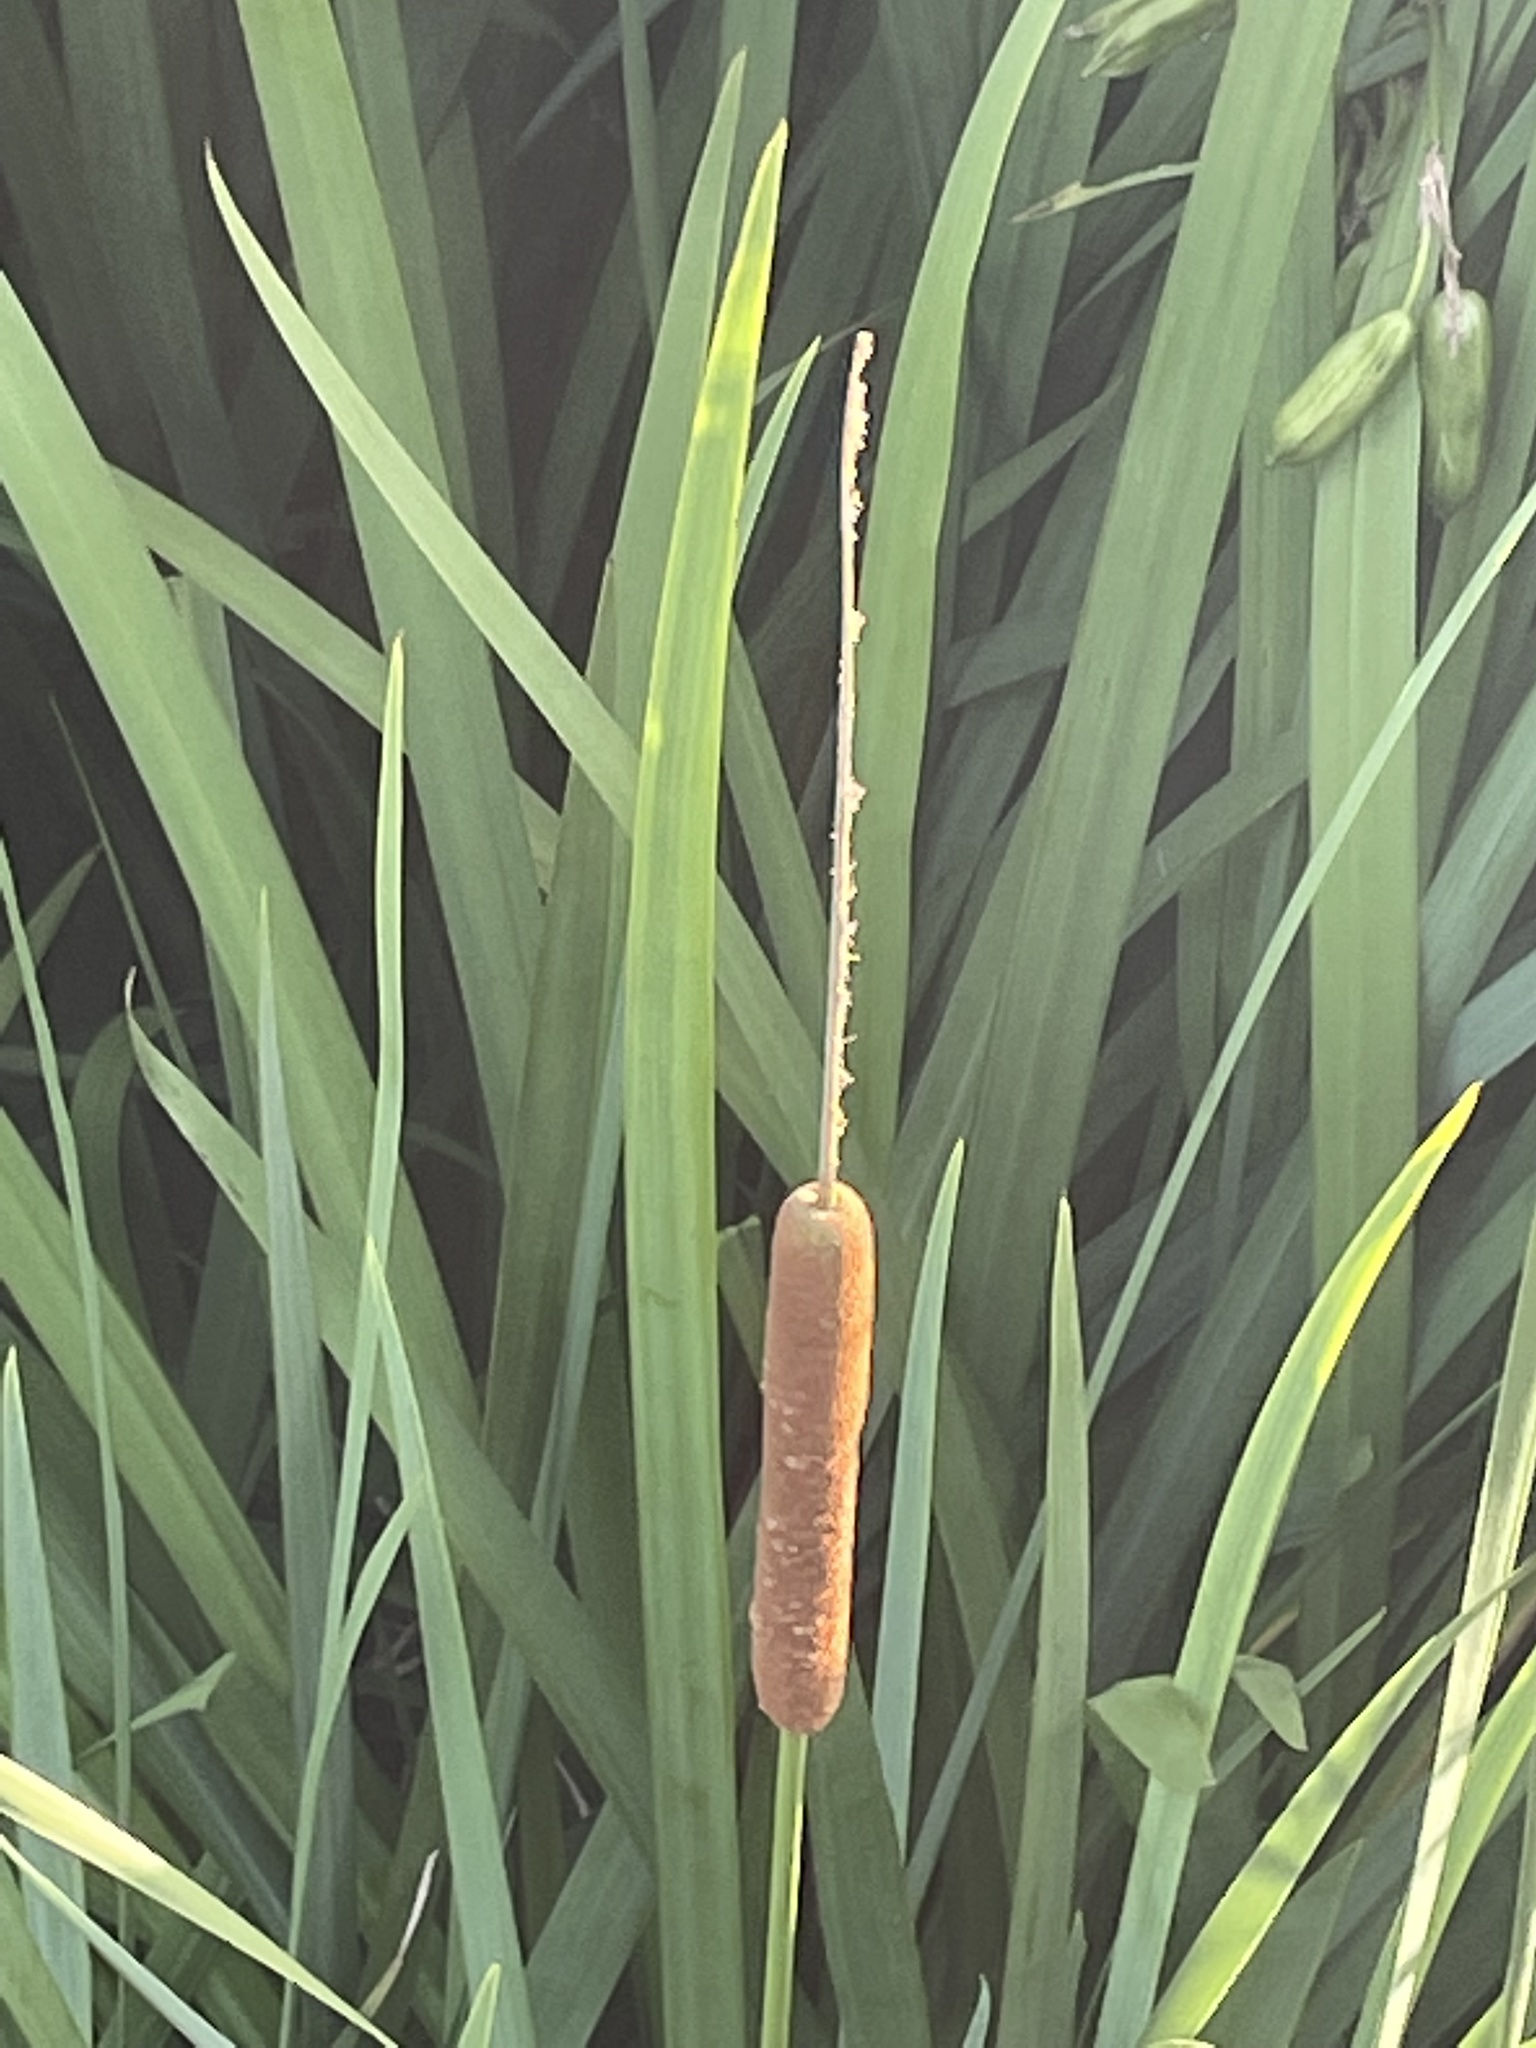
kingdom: Plantae
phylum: Tracheophyta
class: Liliopsida
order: Poales
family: Typhaceae
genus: Typha
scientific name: Typha domingensis
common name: Southern cattail
